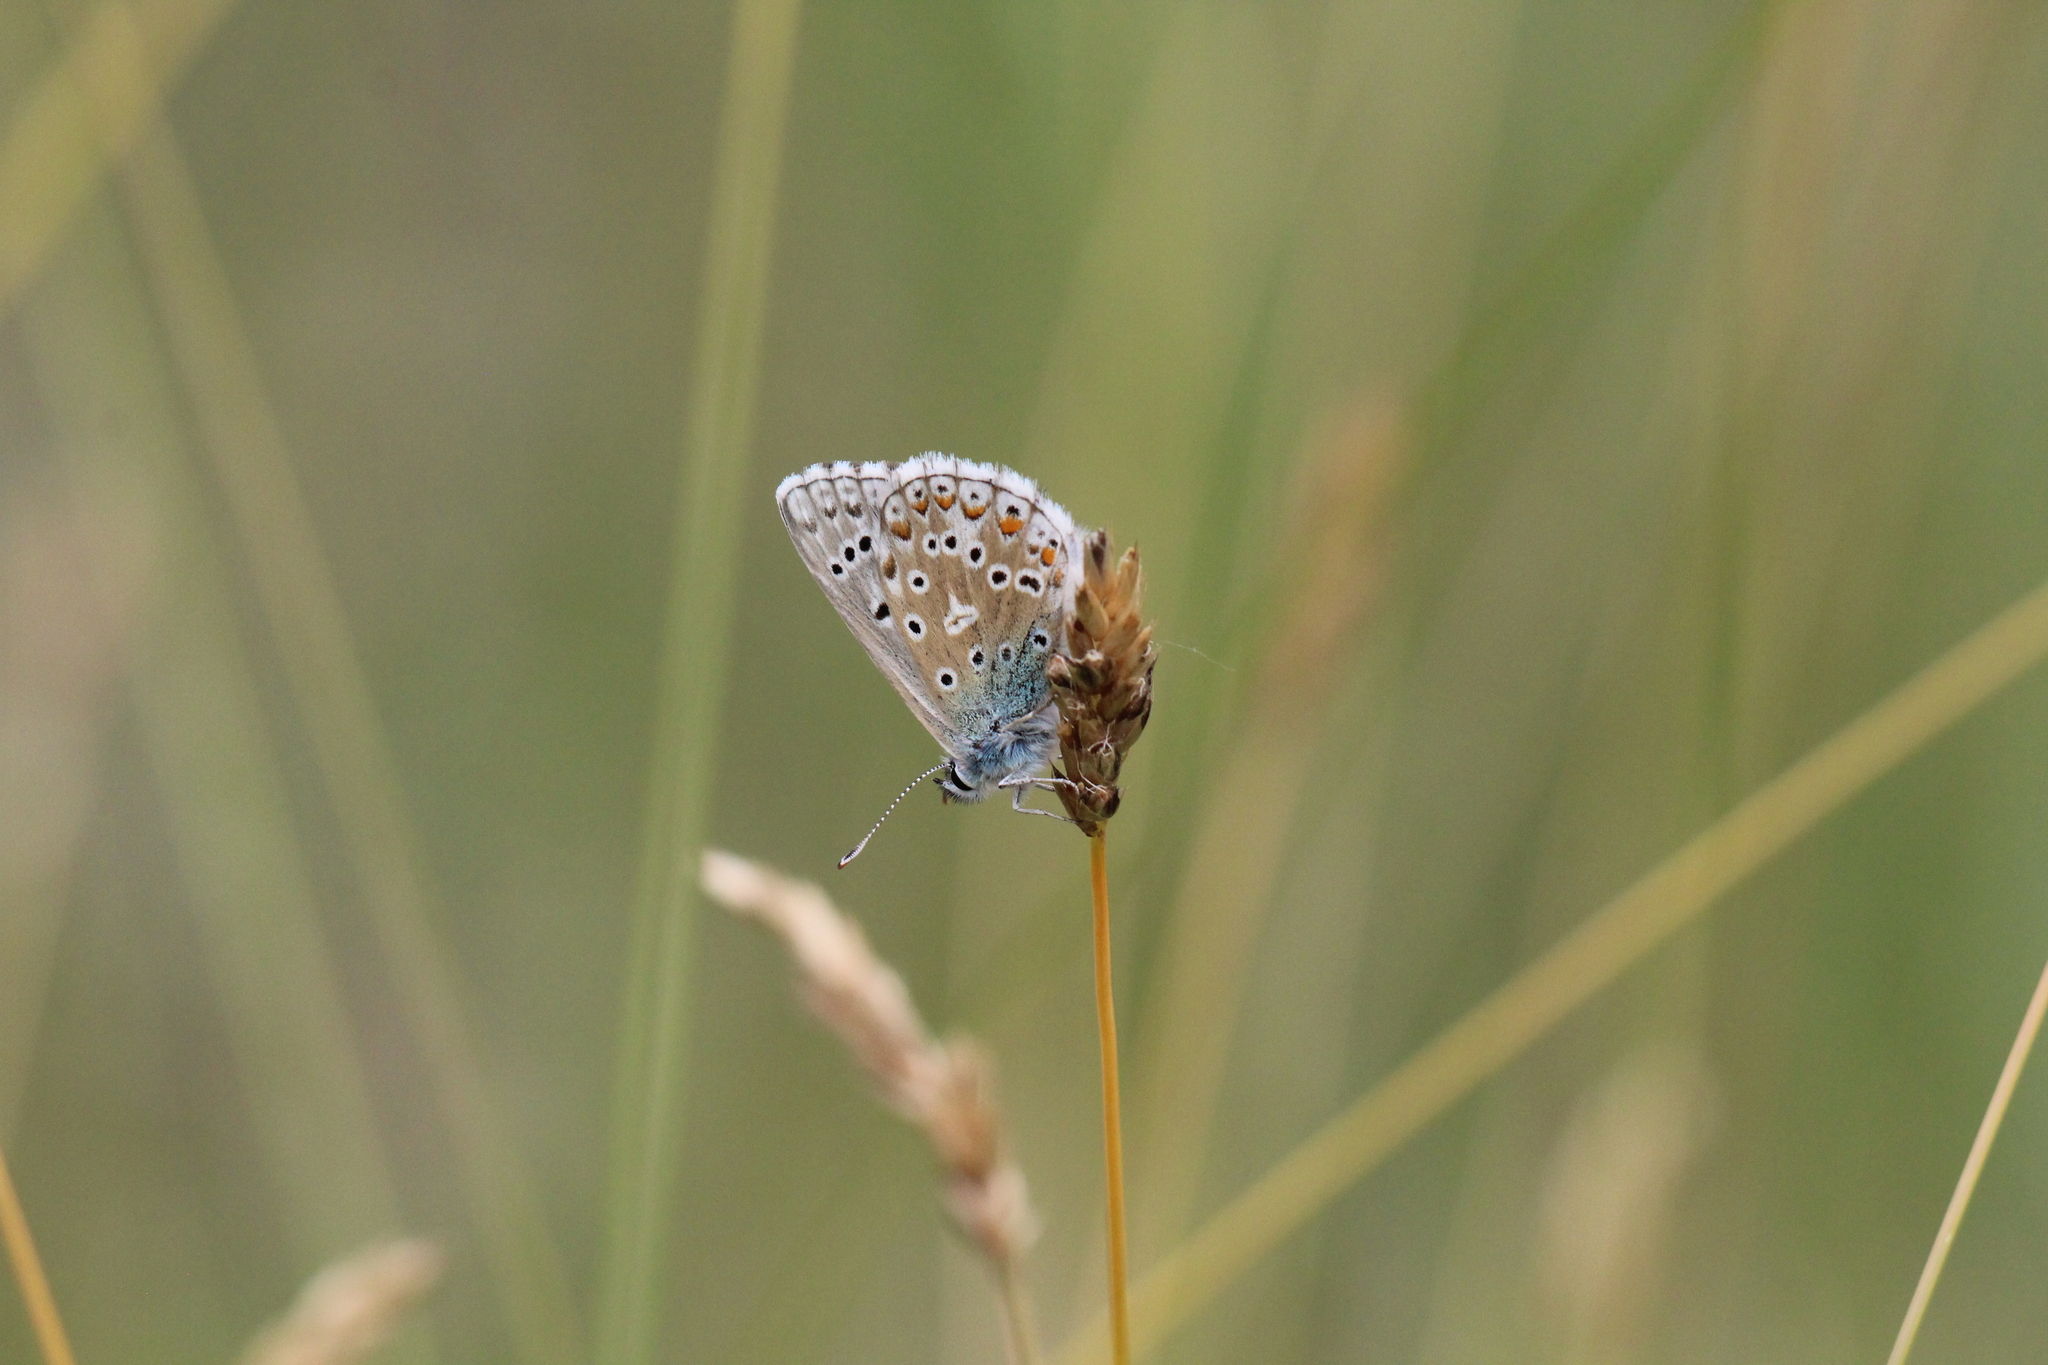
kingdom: Animalia
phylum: Arthropoda
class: Insecta
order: Lepidoptera
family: Lycaenidae
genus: Lysandra
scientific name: Lysandra bellargus
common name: Adonis blue
